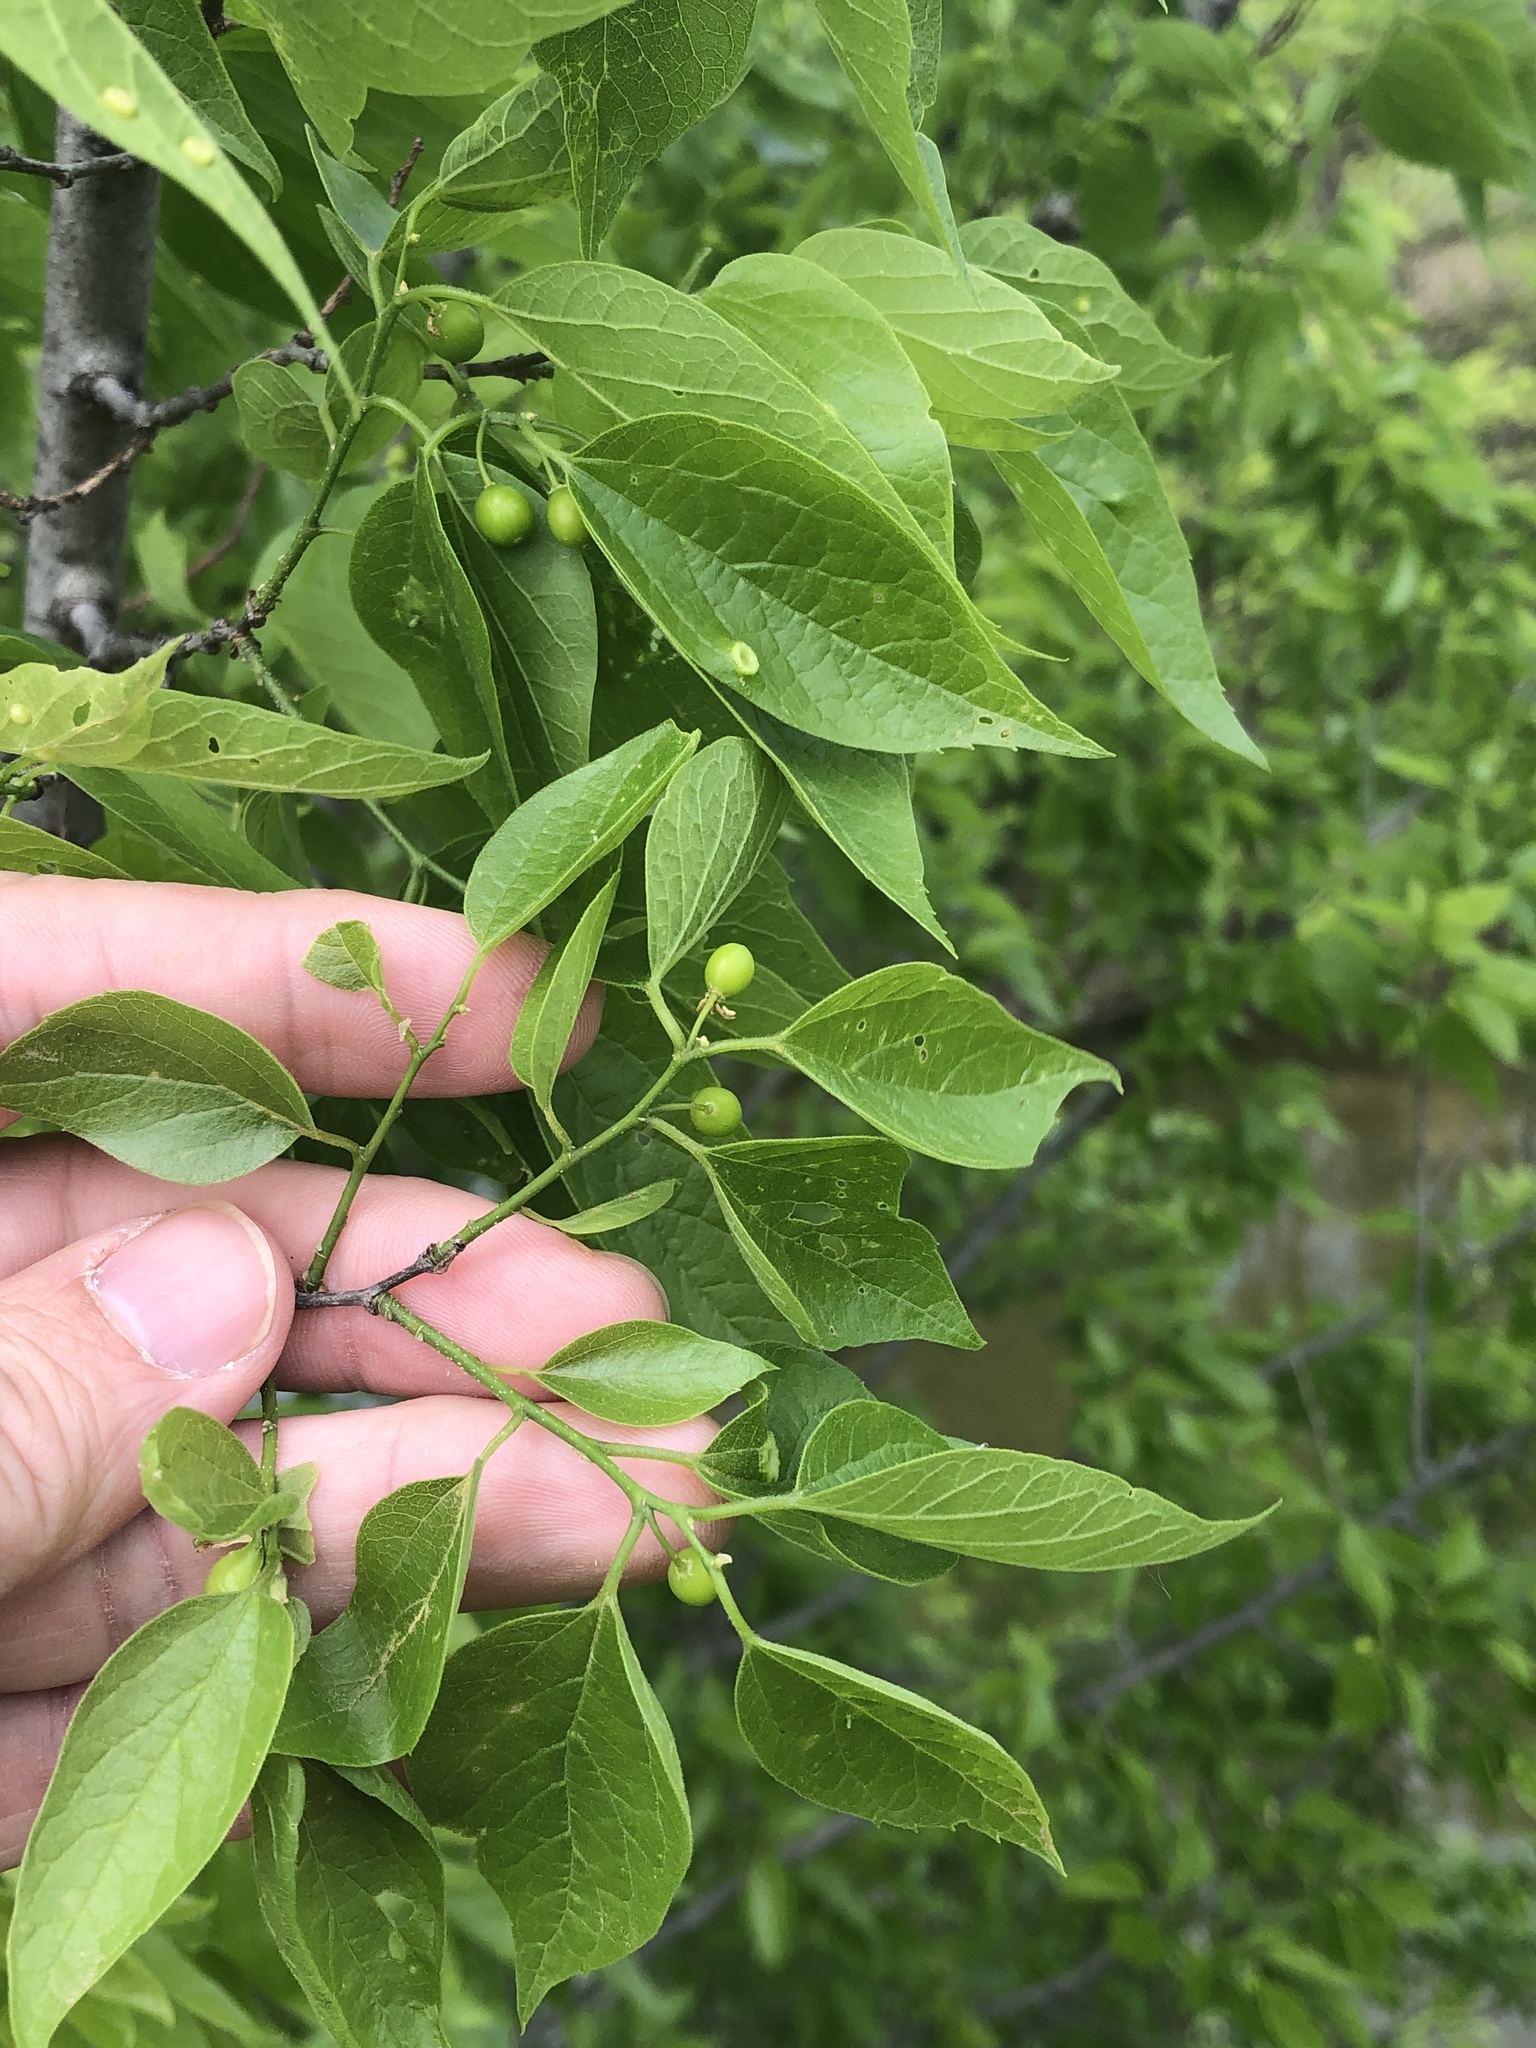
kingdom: Plantae
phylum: Tracheophyta
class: Magnoliopsida
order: Rosales
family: Cannabaceae
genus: Celtis
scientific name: Celtis laevigata
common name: Sugarberry
